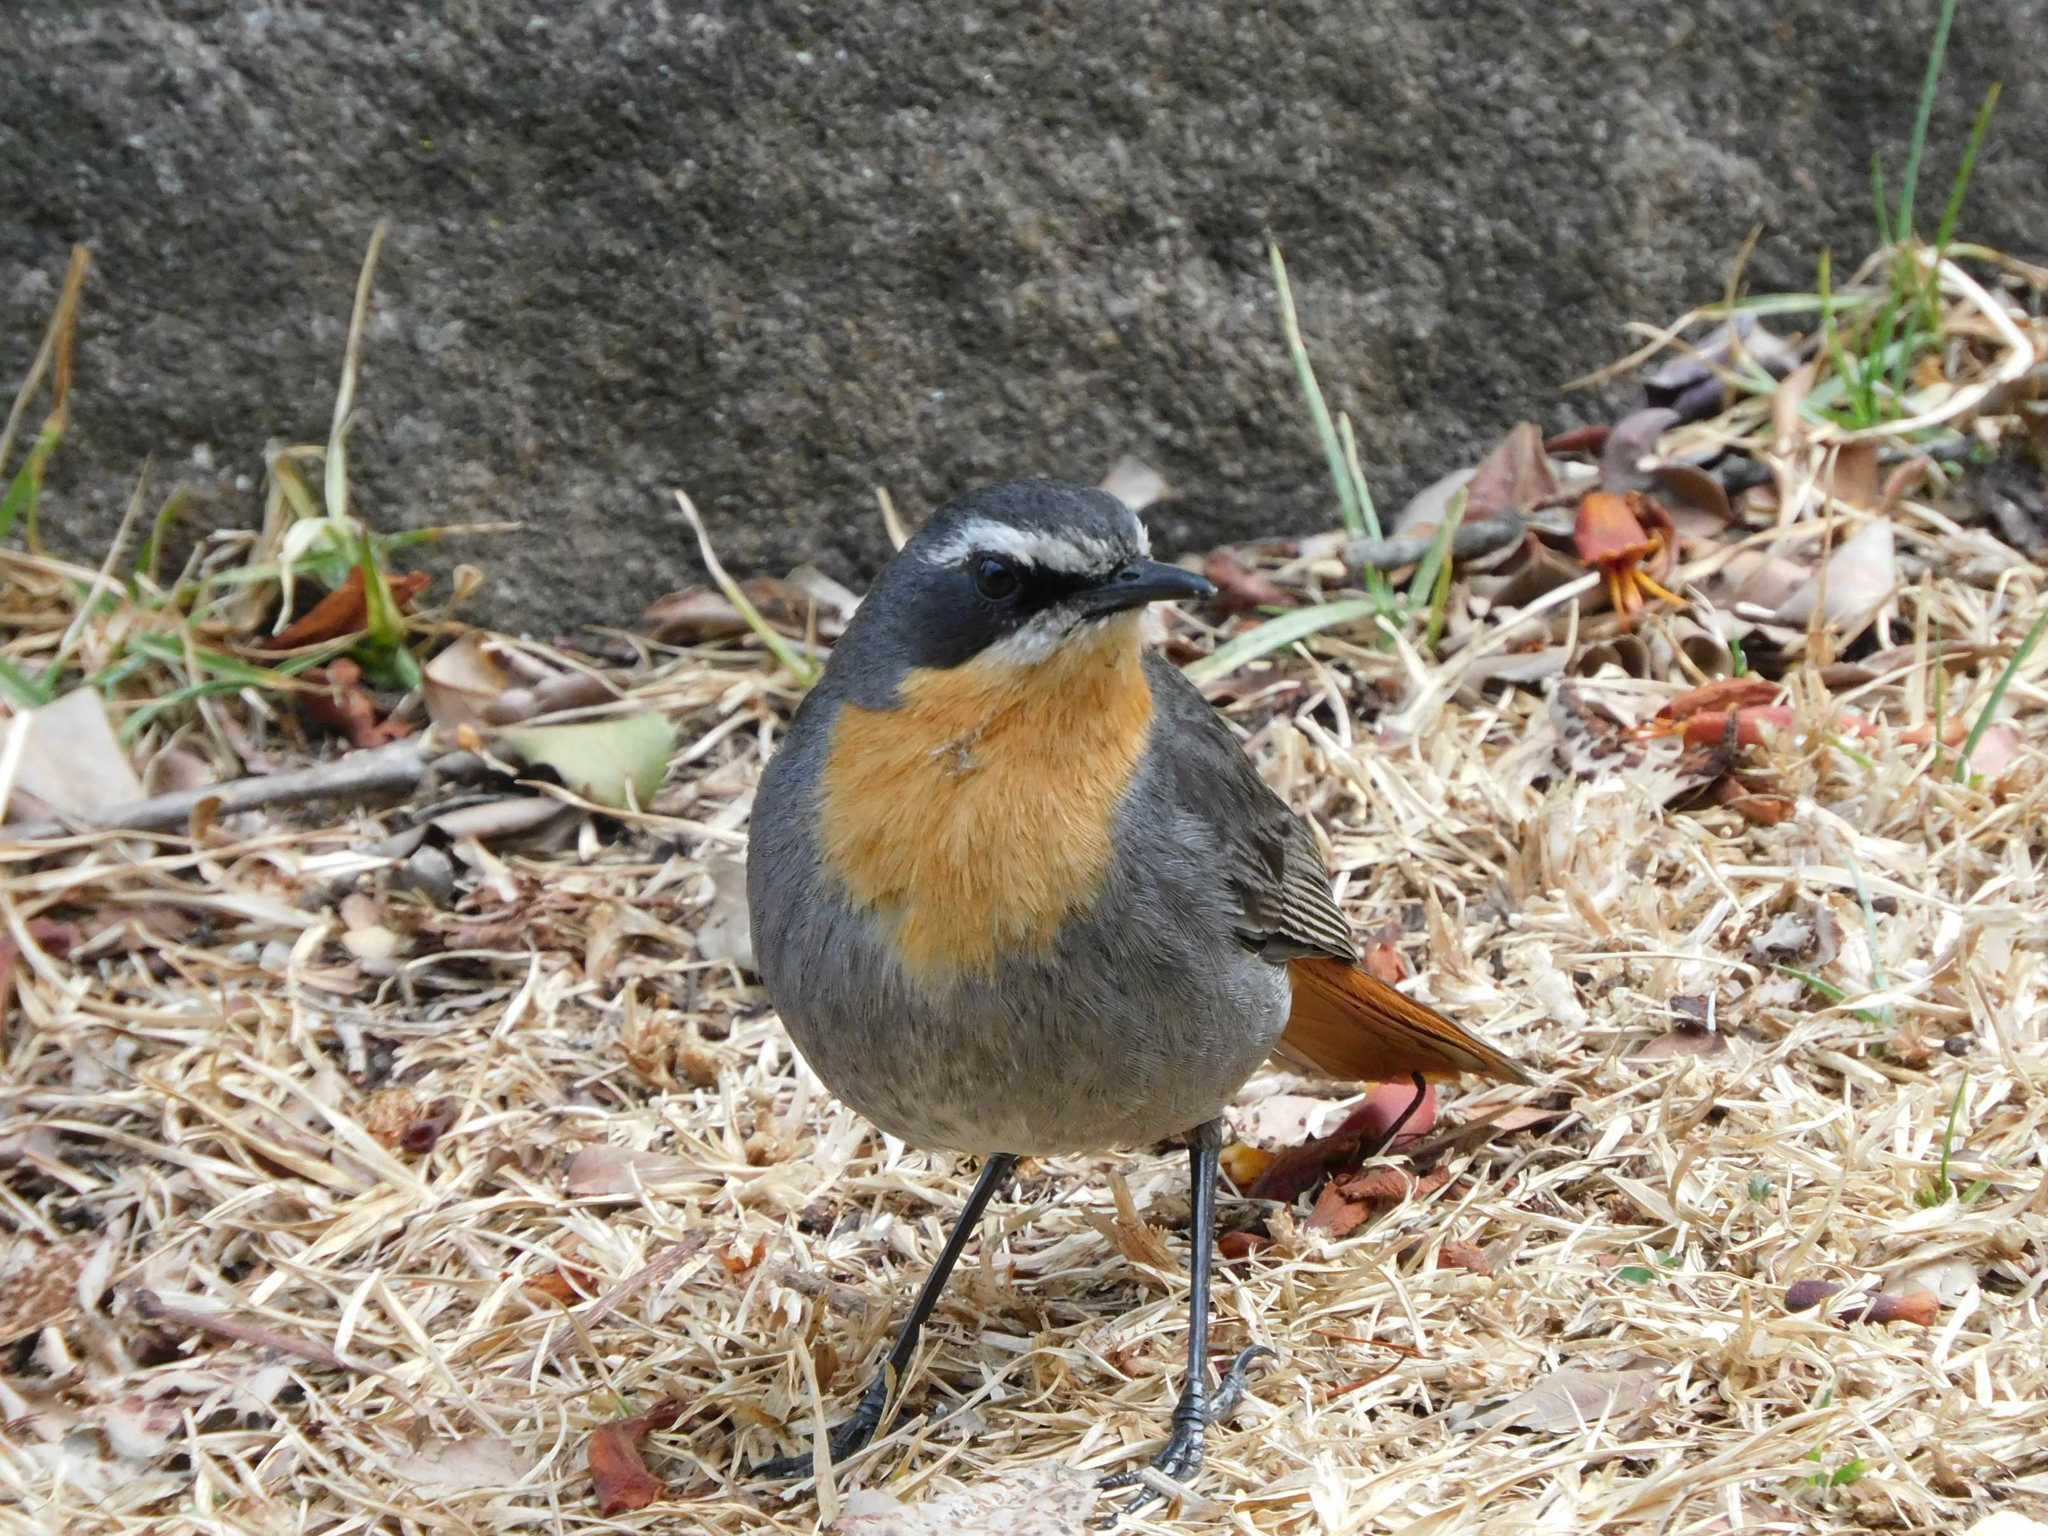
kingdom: Animalia
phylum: Chordata
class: Aves
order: Passeriformes
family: Muscicapidae
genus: Cossypha
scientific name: Cossypha caffra
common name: Cape robin-chat
